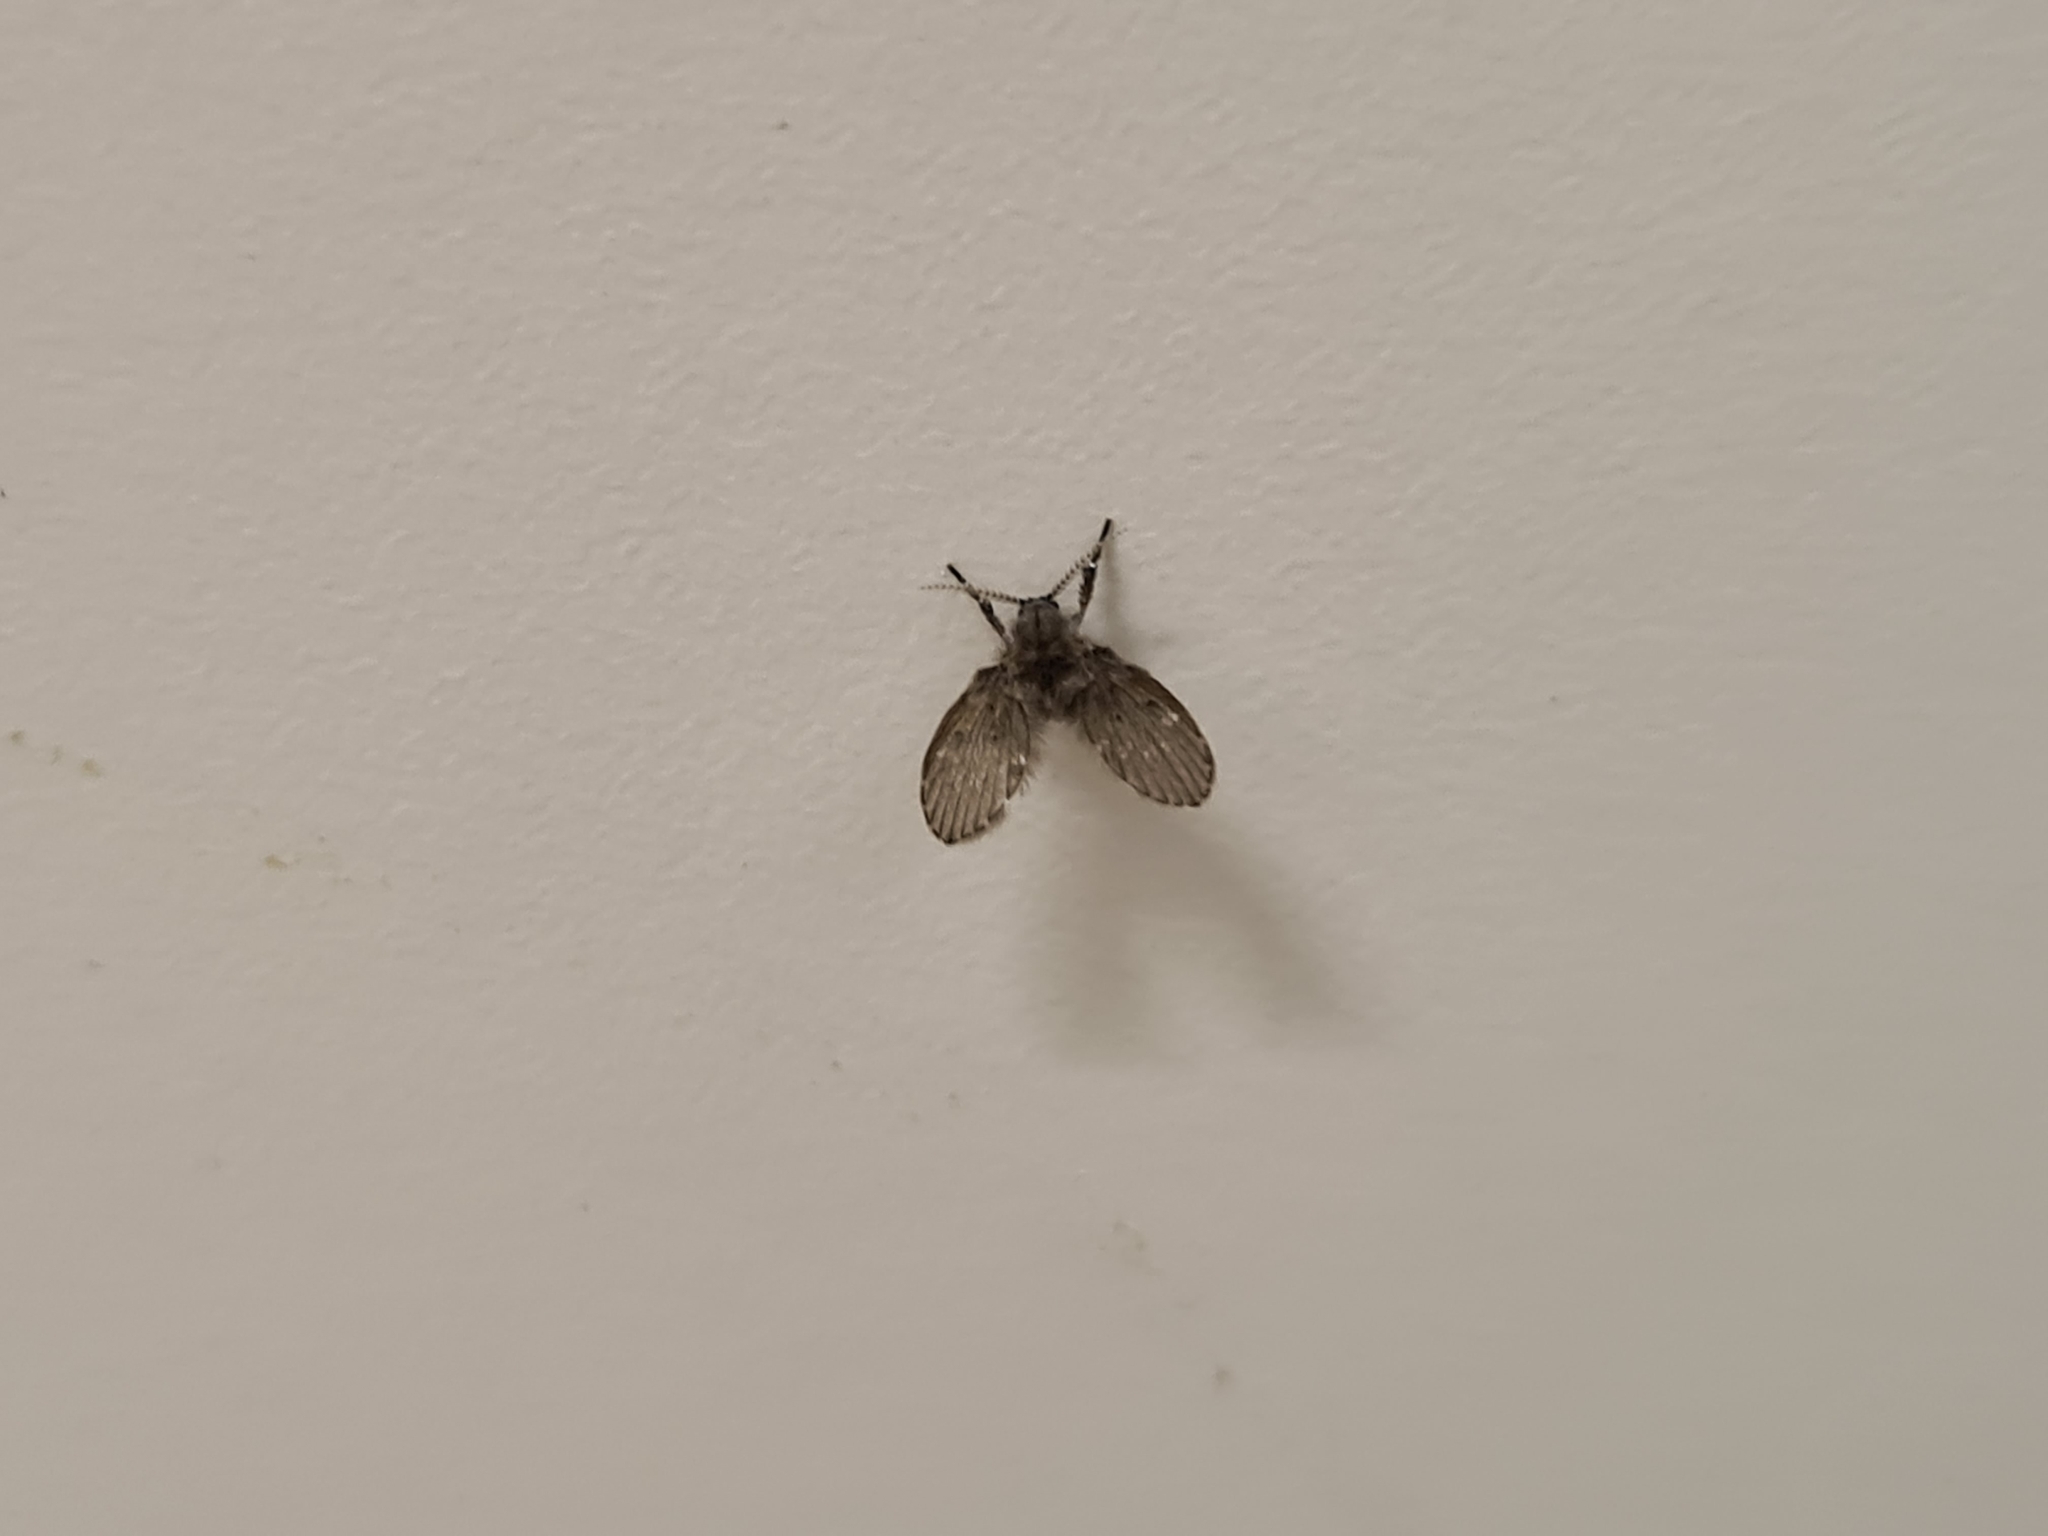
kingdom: Animalia
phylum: Arthropoda
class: Insecta
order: Diptera
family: Psychodidae
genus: Clogmia
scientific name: Clogmia albipunctatus
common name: White-spotted moth fly
